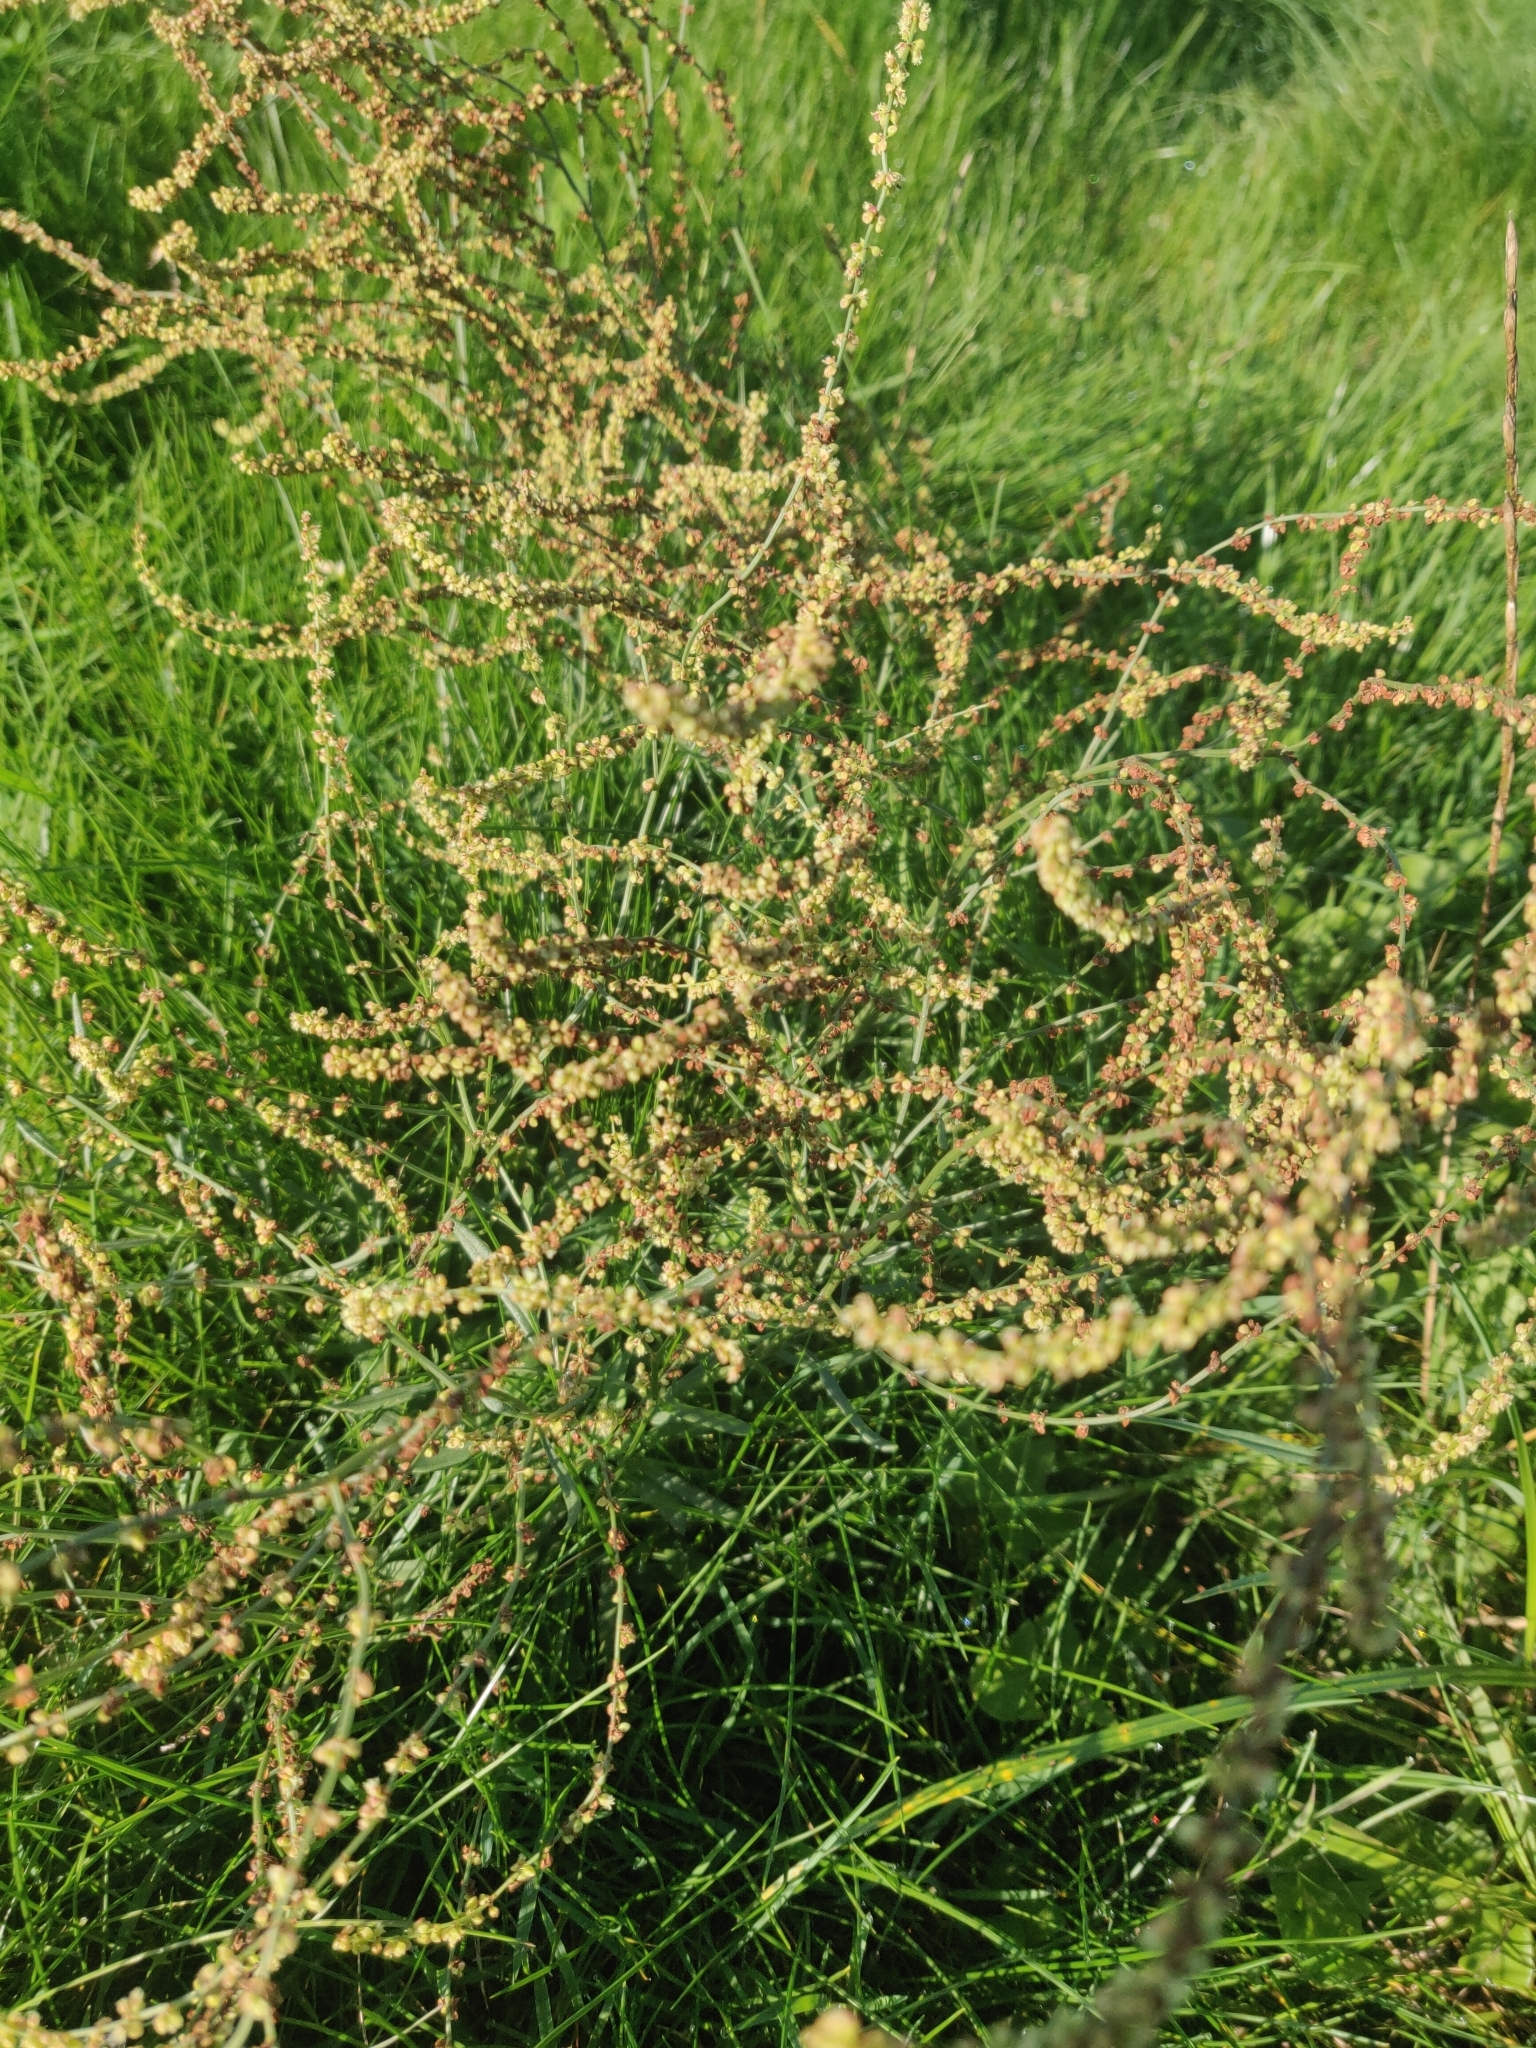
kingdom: Plantae
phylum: Tracheophyta
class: Magnoliopsida
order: Caryophyllales
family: Polygonaceae
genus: Rumex
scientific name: Rumex acetosella
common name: Common sheep sorrel
